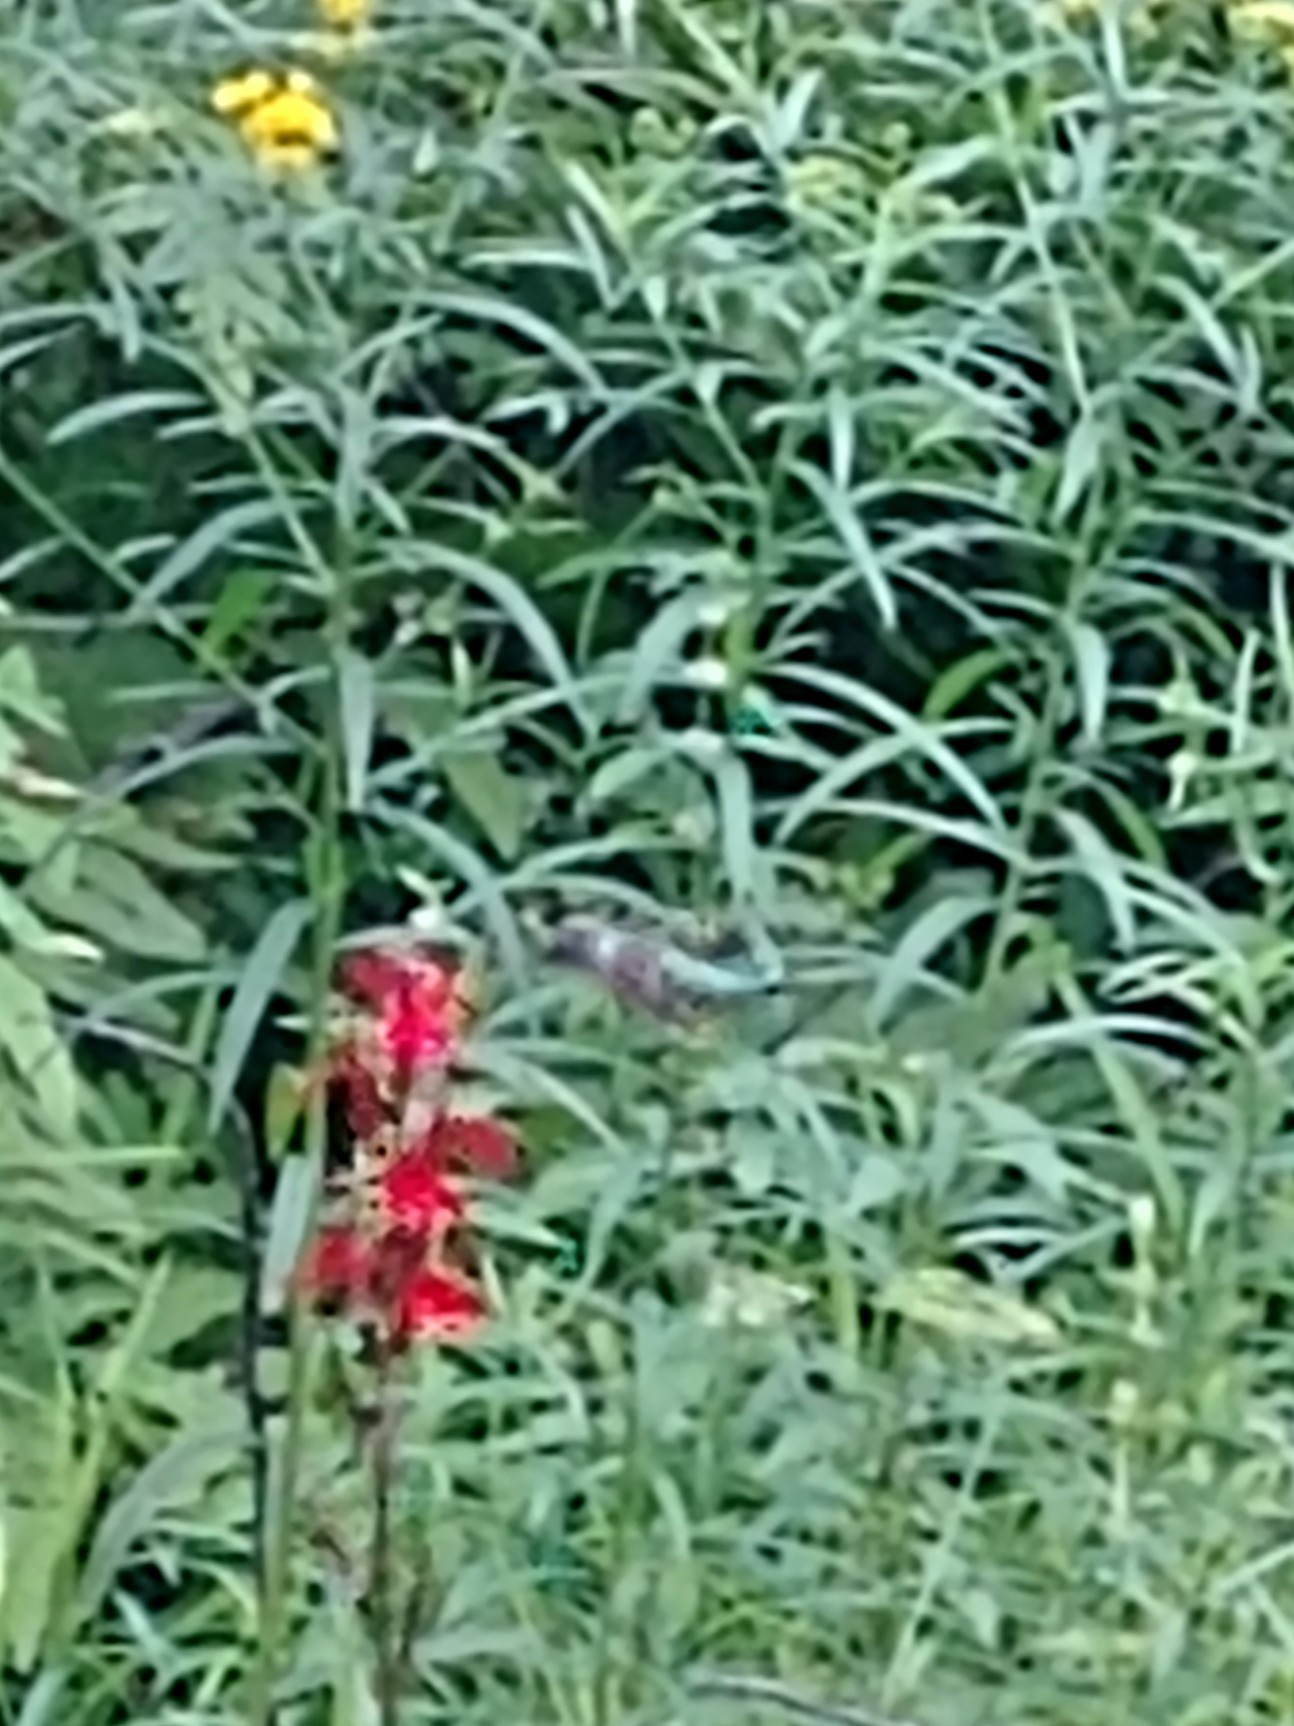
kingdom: Animalia
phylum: Chordata
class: Aves
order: Apodiformes
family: Trochilidae
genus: Archilochus
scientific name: Archilochus colubris
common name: Ruby-throated hummingbird
